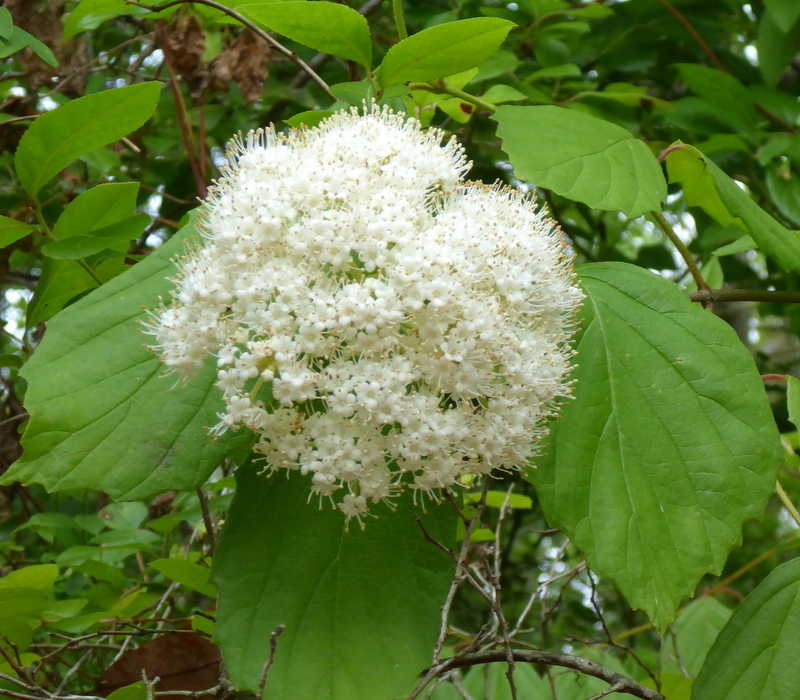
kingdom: Plantae
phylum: Tracheophyta
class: Magnoliopsida
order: Dipsacales
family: Viburnaceae
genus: Viburnum
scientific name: Viburnum scabrellum
